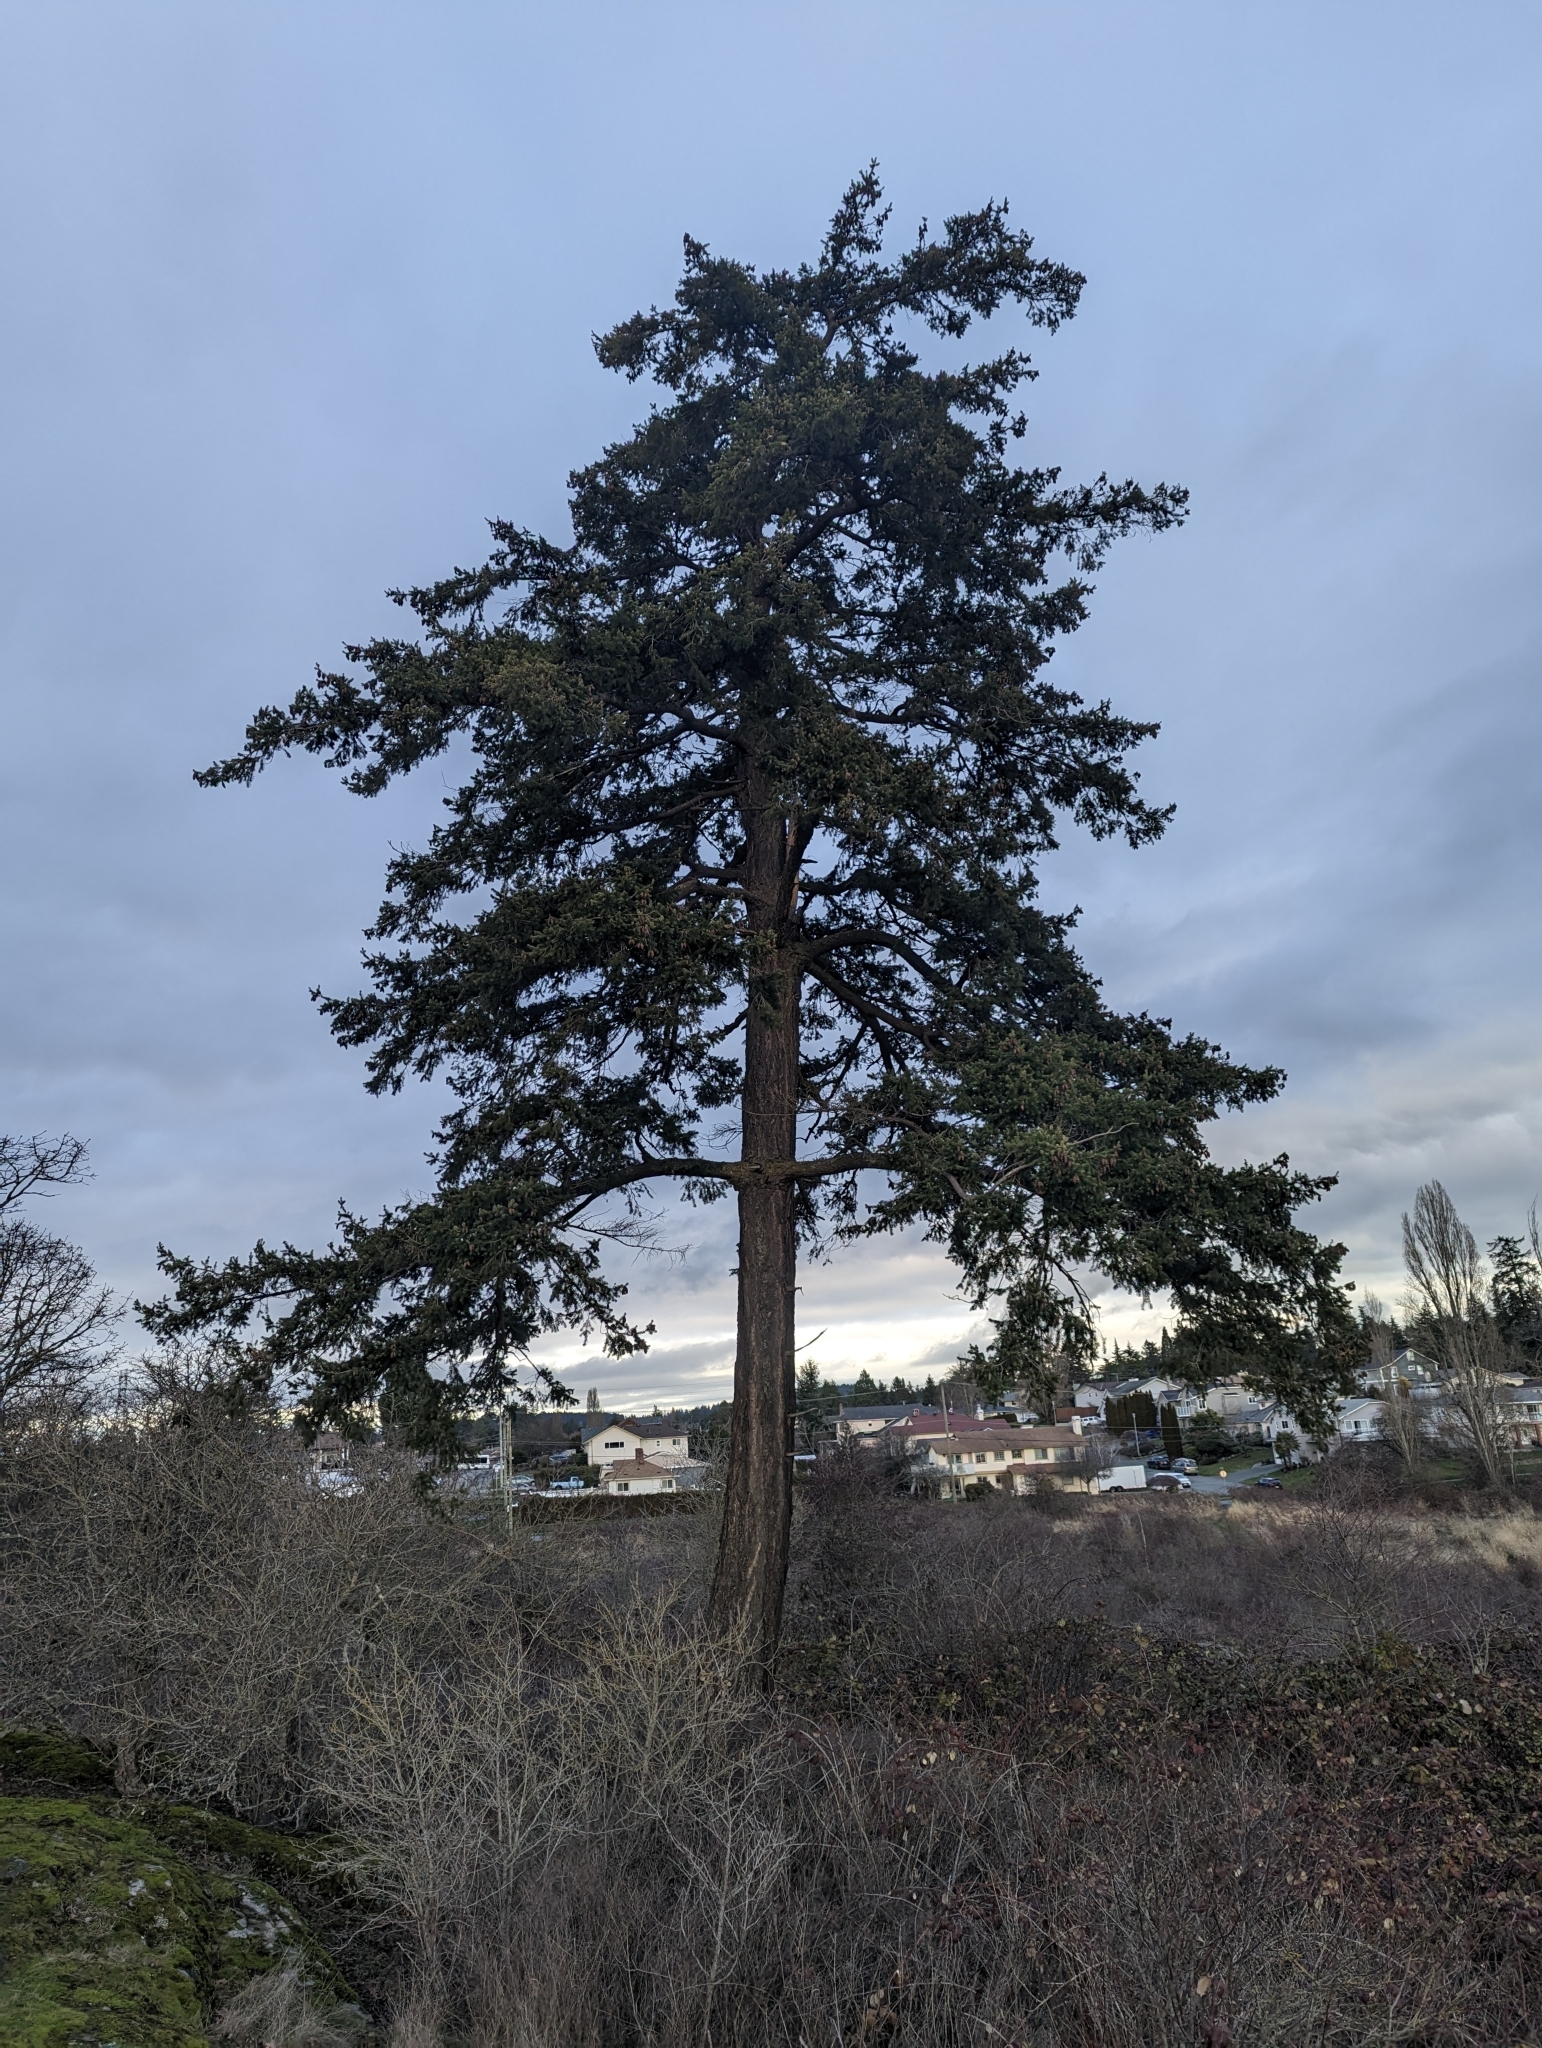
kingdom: Plantae
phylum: Tracheophyta
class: Pinopsida
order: Pinales
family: Pinaceae
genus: Pseudotsuga
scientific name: Pseudotsuga menziesii
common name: Douglas fir
